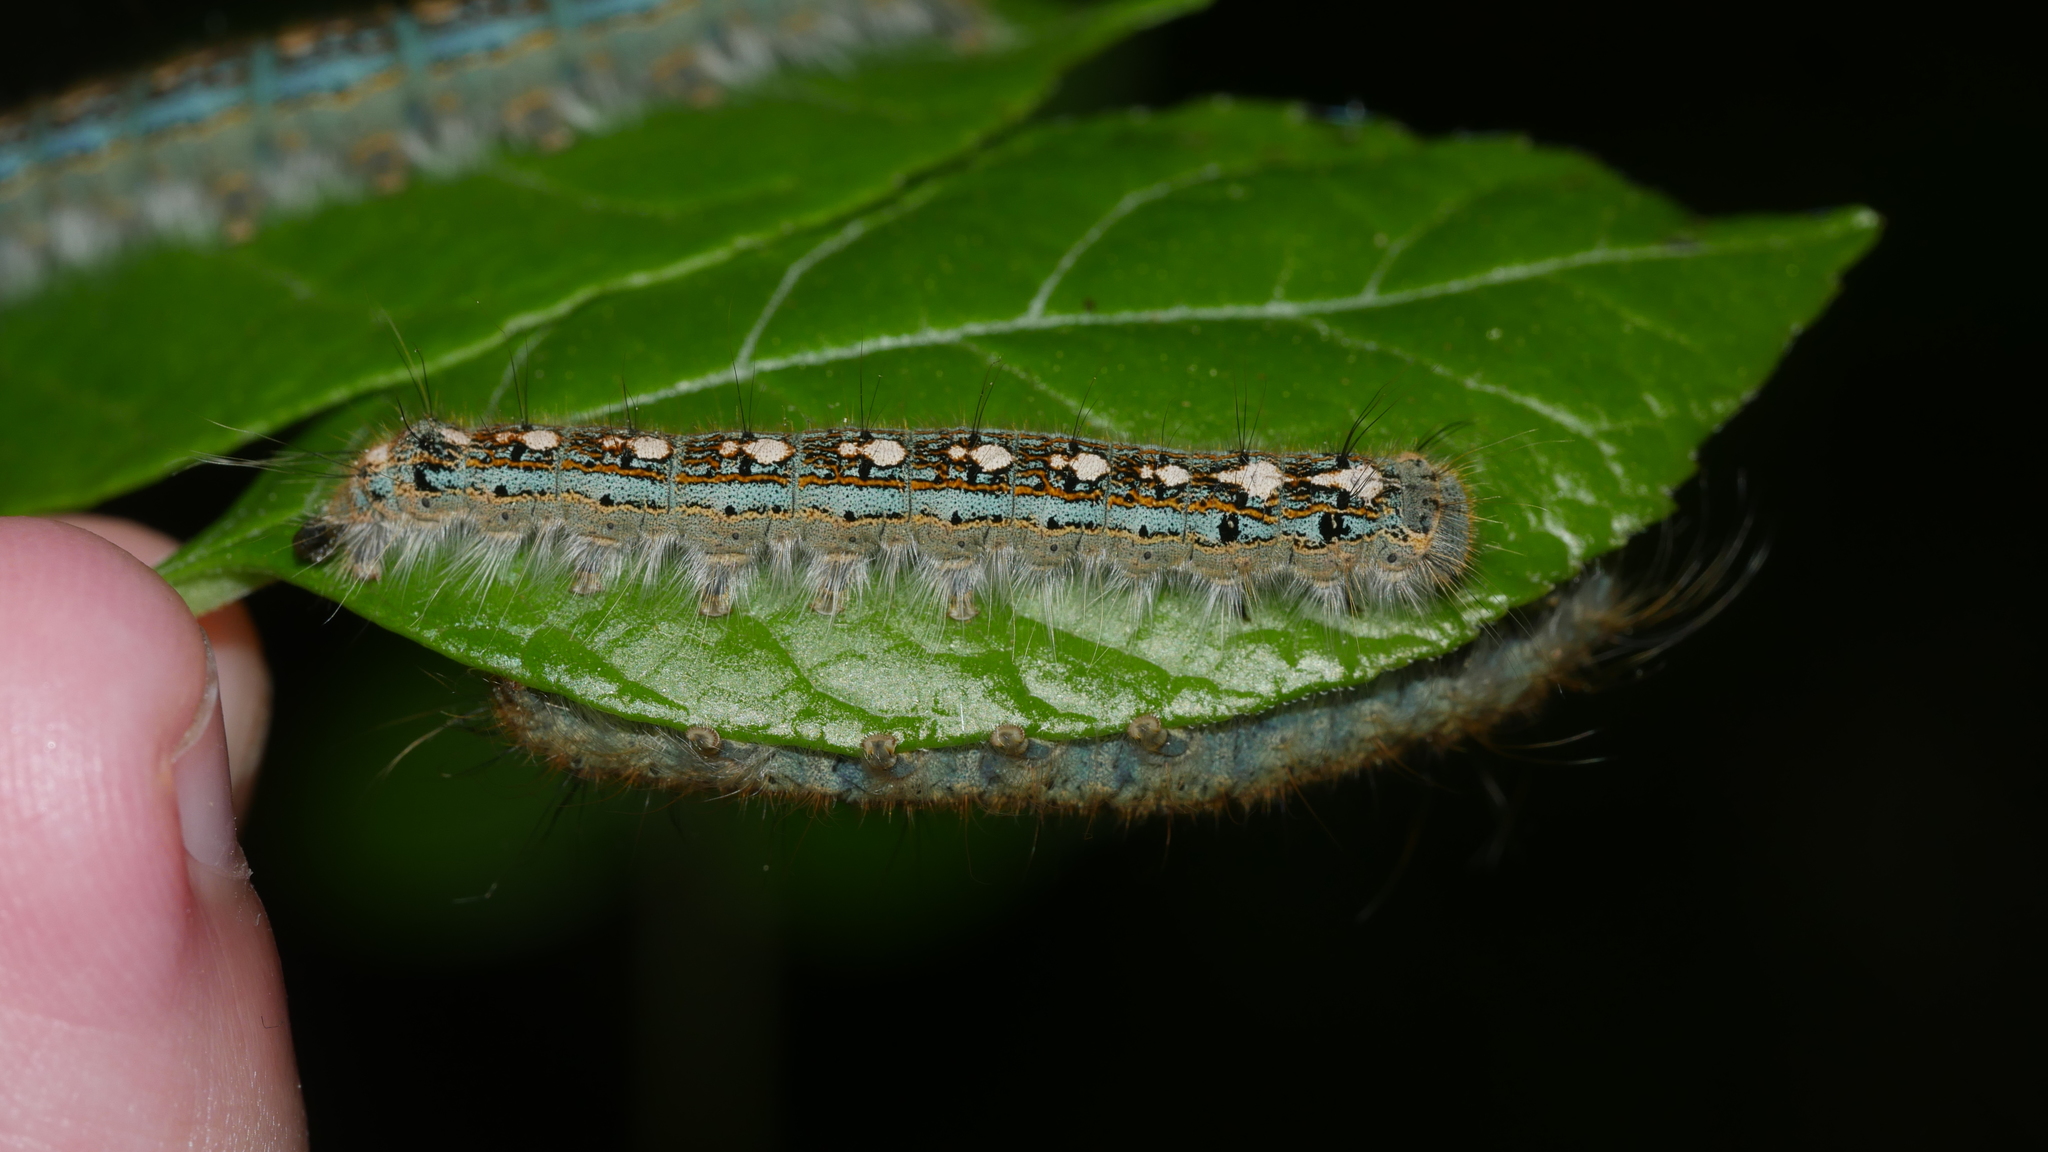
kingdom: Animalia
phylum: Arthropoda
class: Insecta
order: Lepidoptera
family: Lasiocampidae
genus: Malacosoma
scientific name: Malacosoma disstria
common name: Forest tent caterpillar
